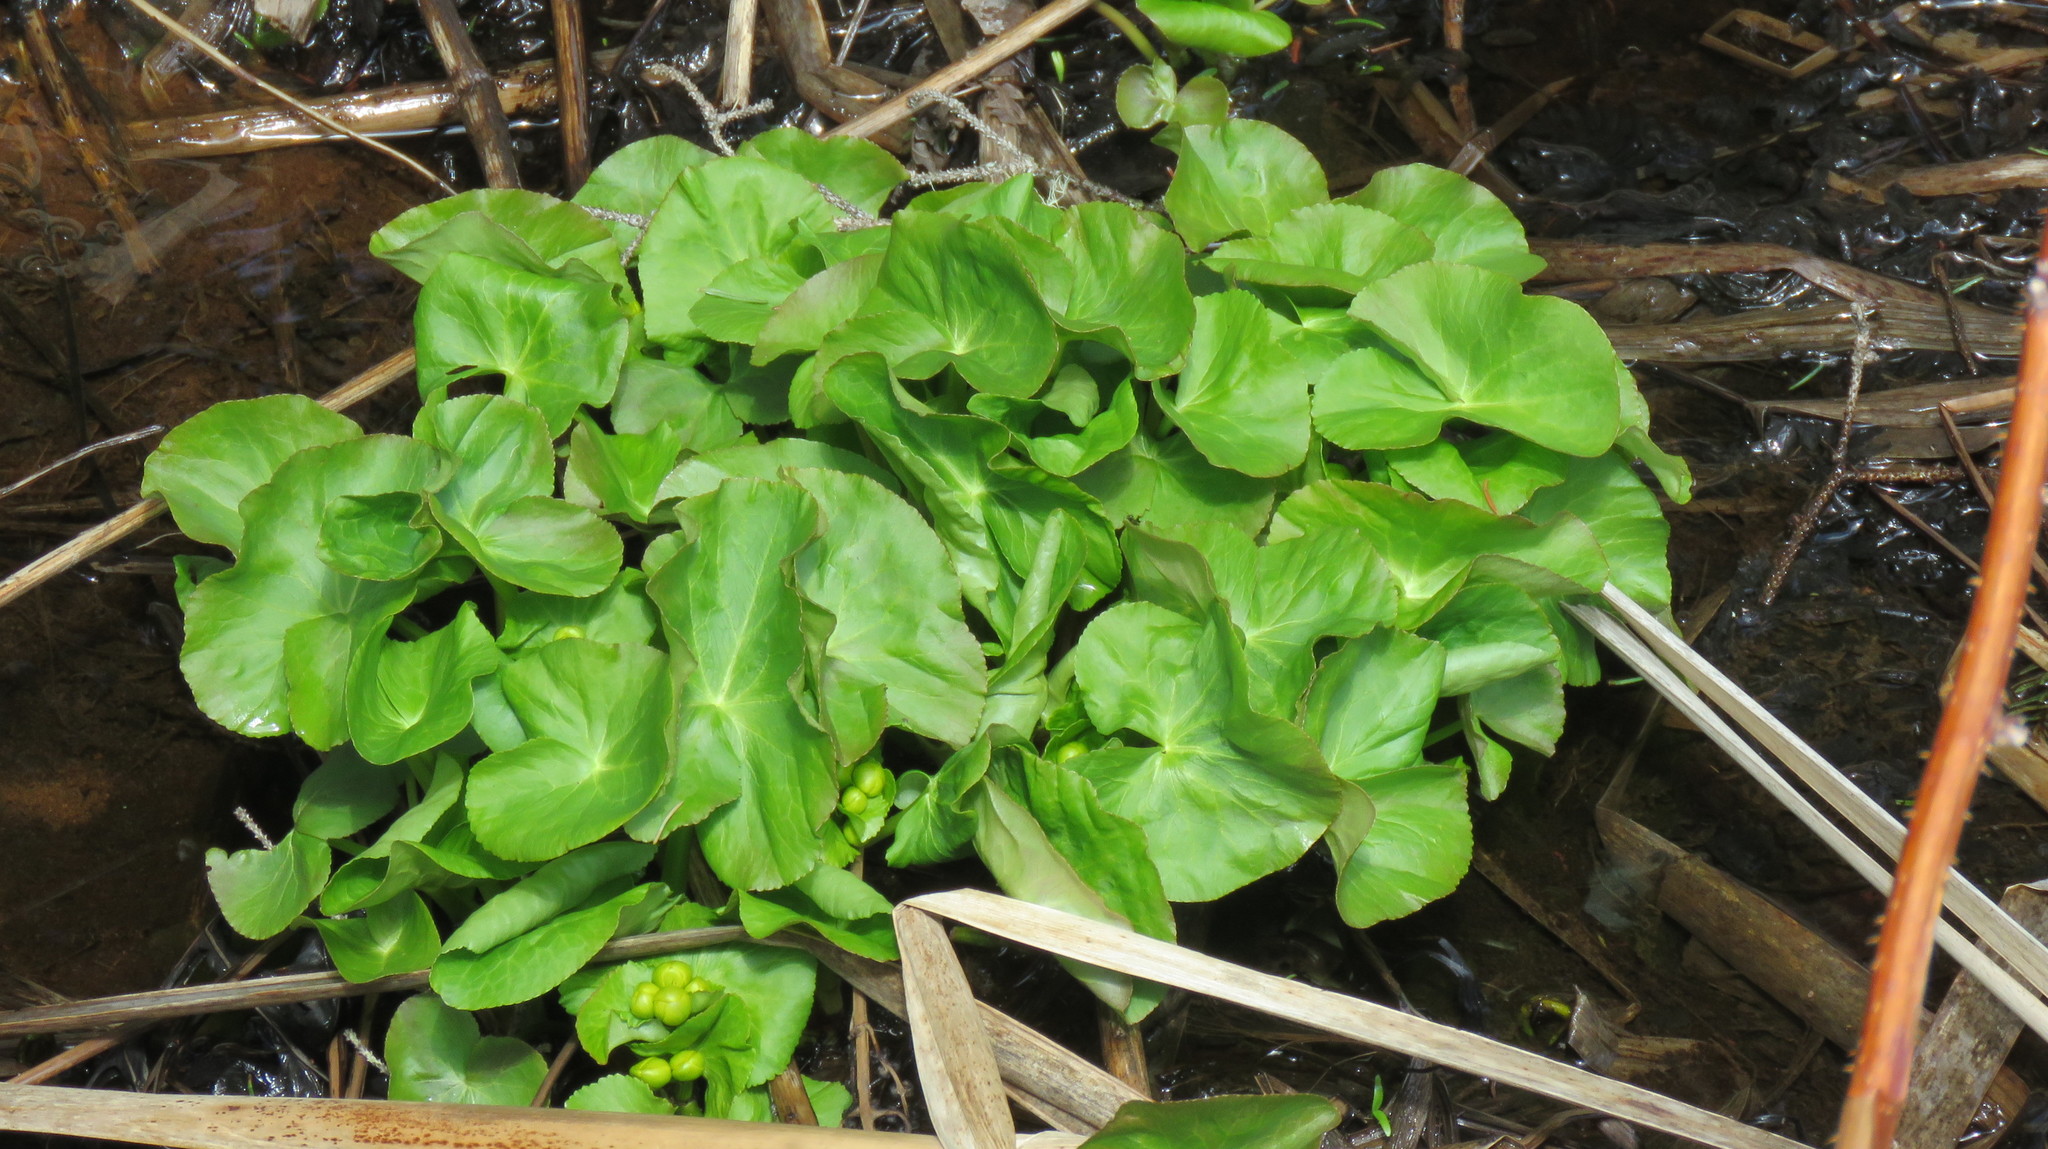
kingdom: Plantae
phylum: Tracheophyta
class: Magnoliopsida
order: Ranunculales
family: Ranunculaceae
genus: Caltha
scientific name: Caltha palustris
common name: Marsh marigold
